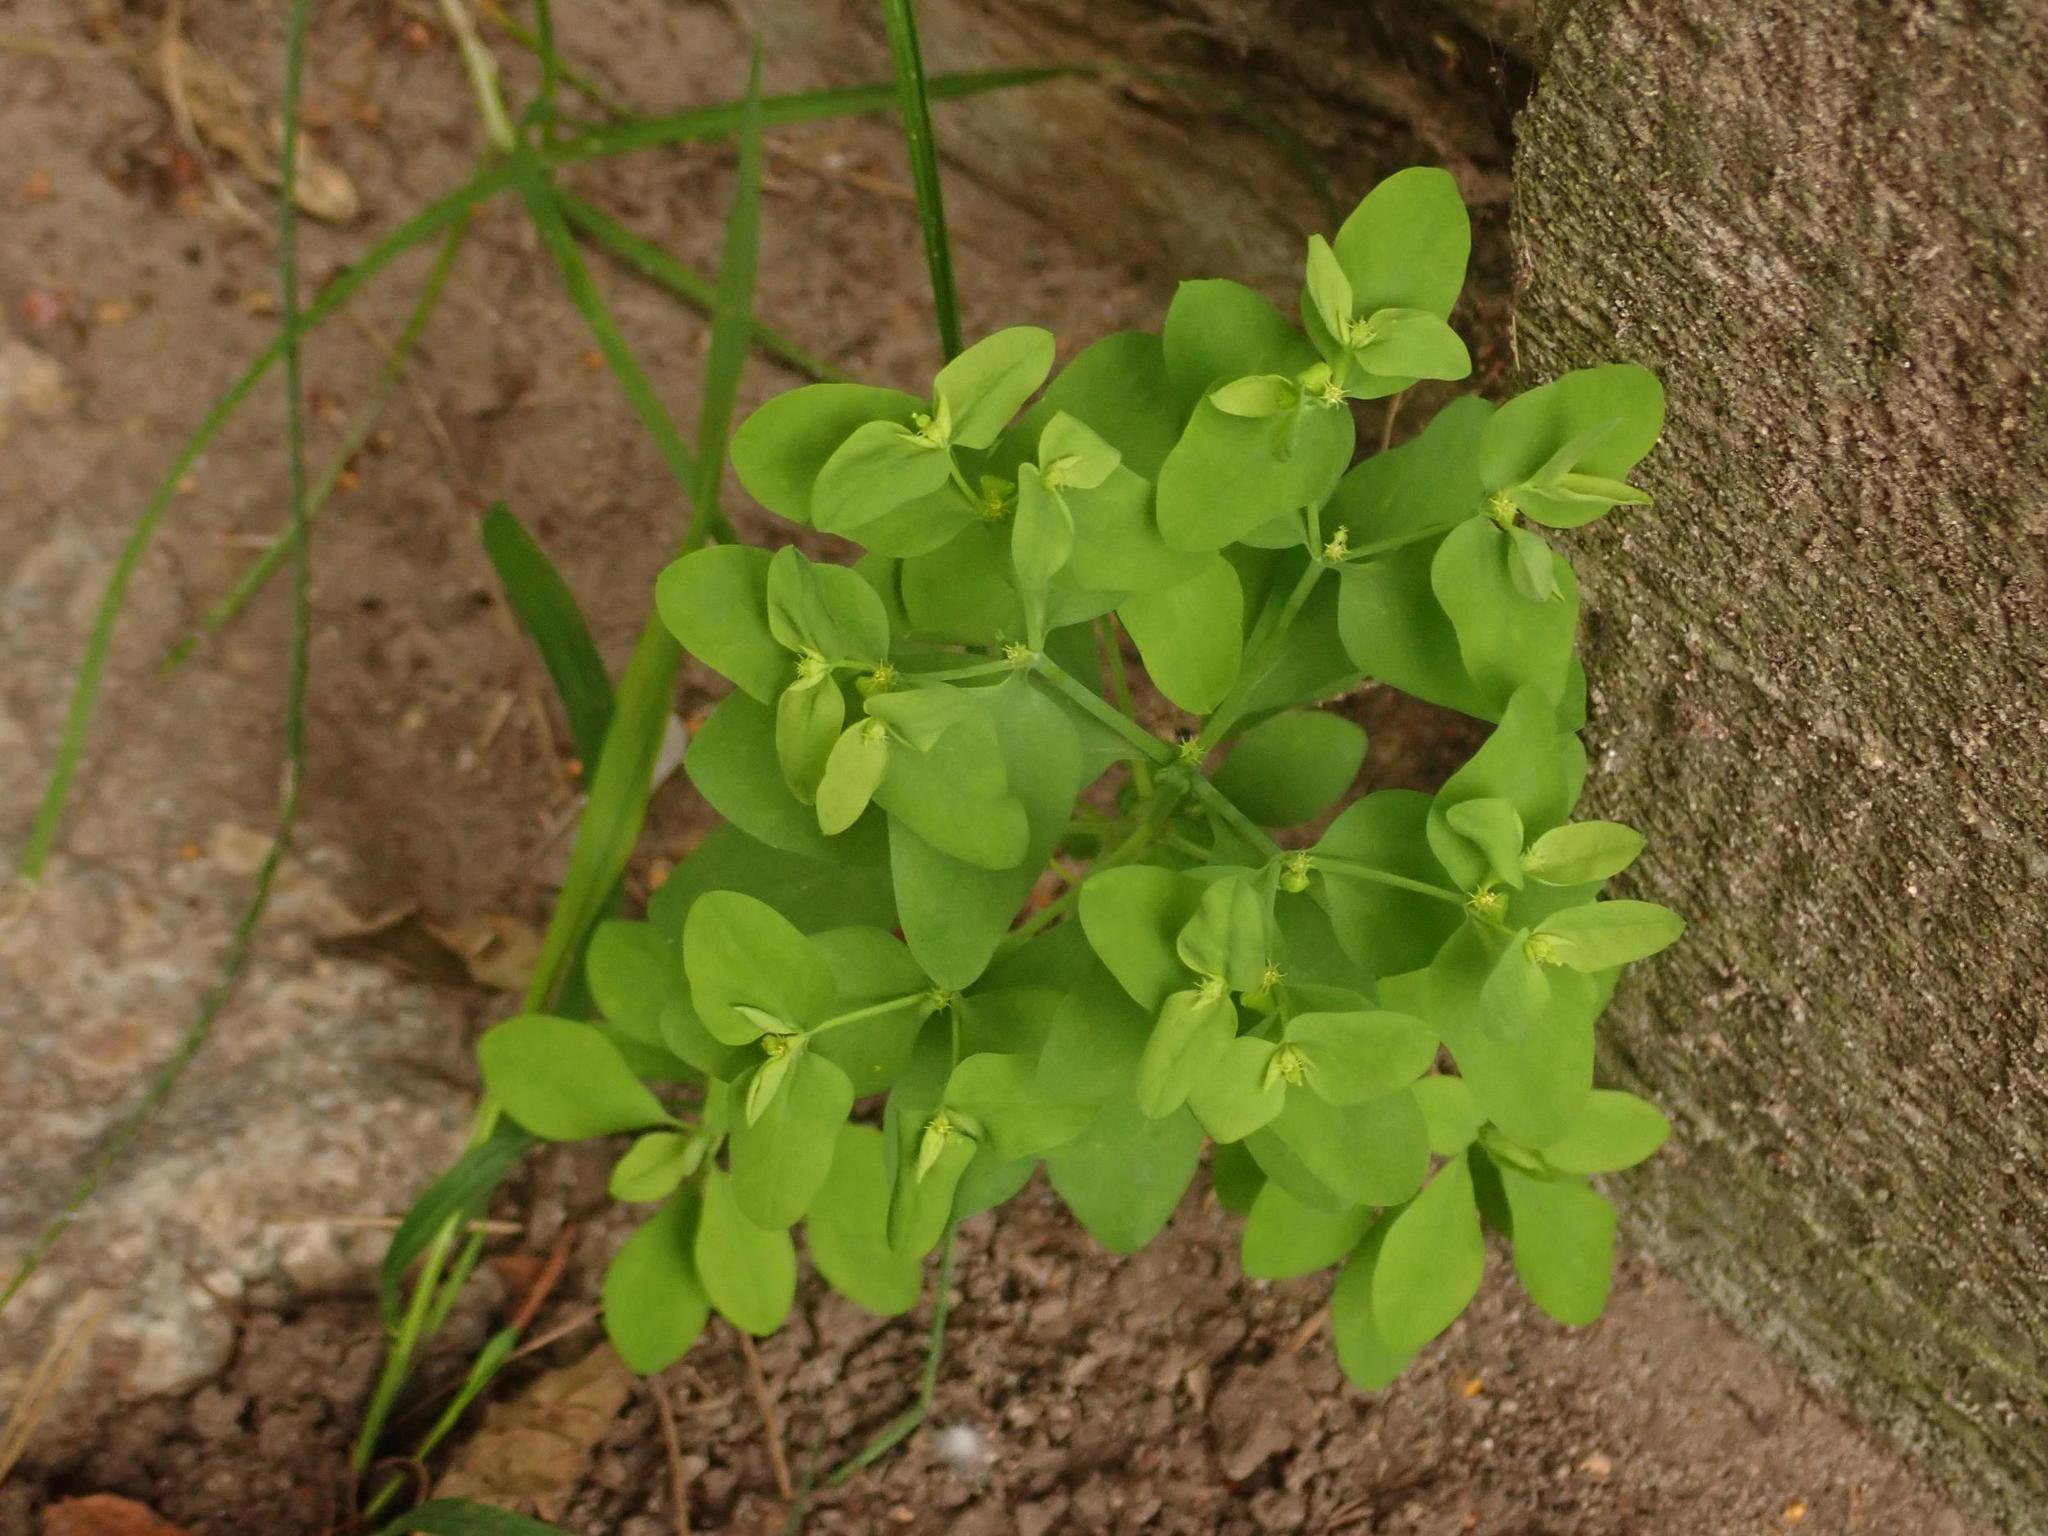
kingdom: Plantae
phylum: Tracheophyta
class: Magnoliopsida
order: Malpighiales
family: Euphorbiaceae
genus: Euphorbia
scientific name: Euphorbia peplus
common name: Petty spurge
